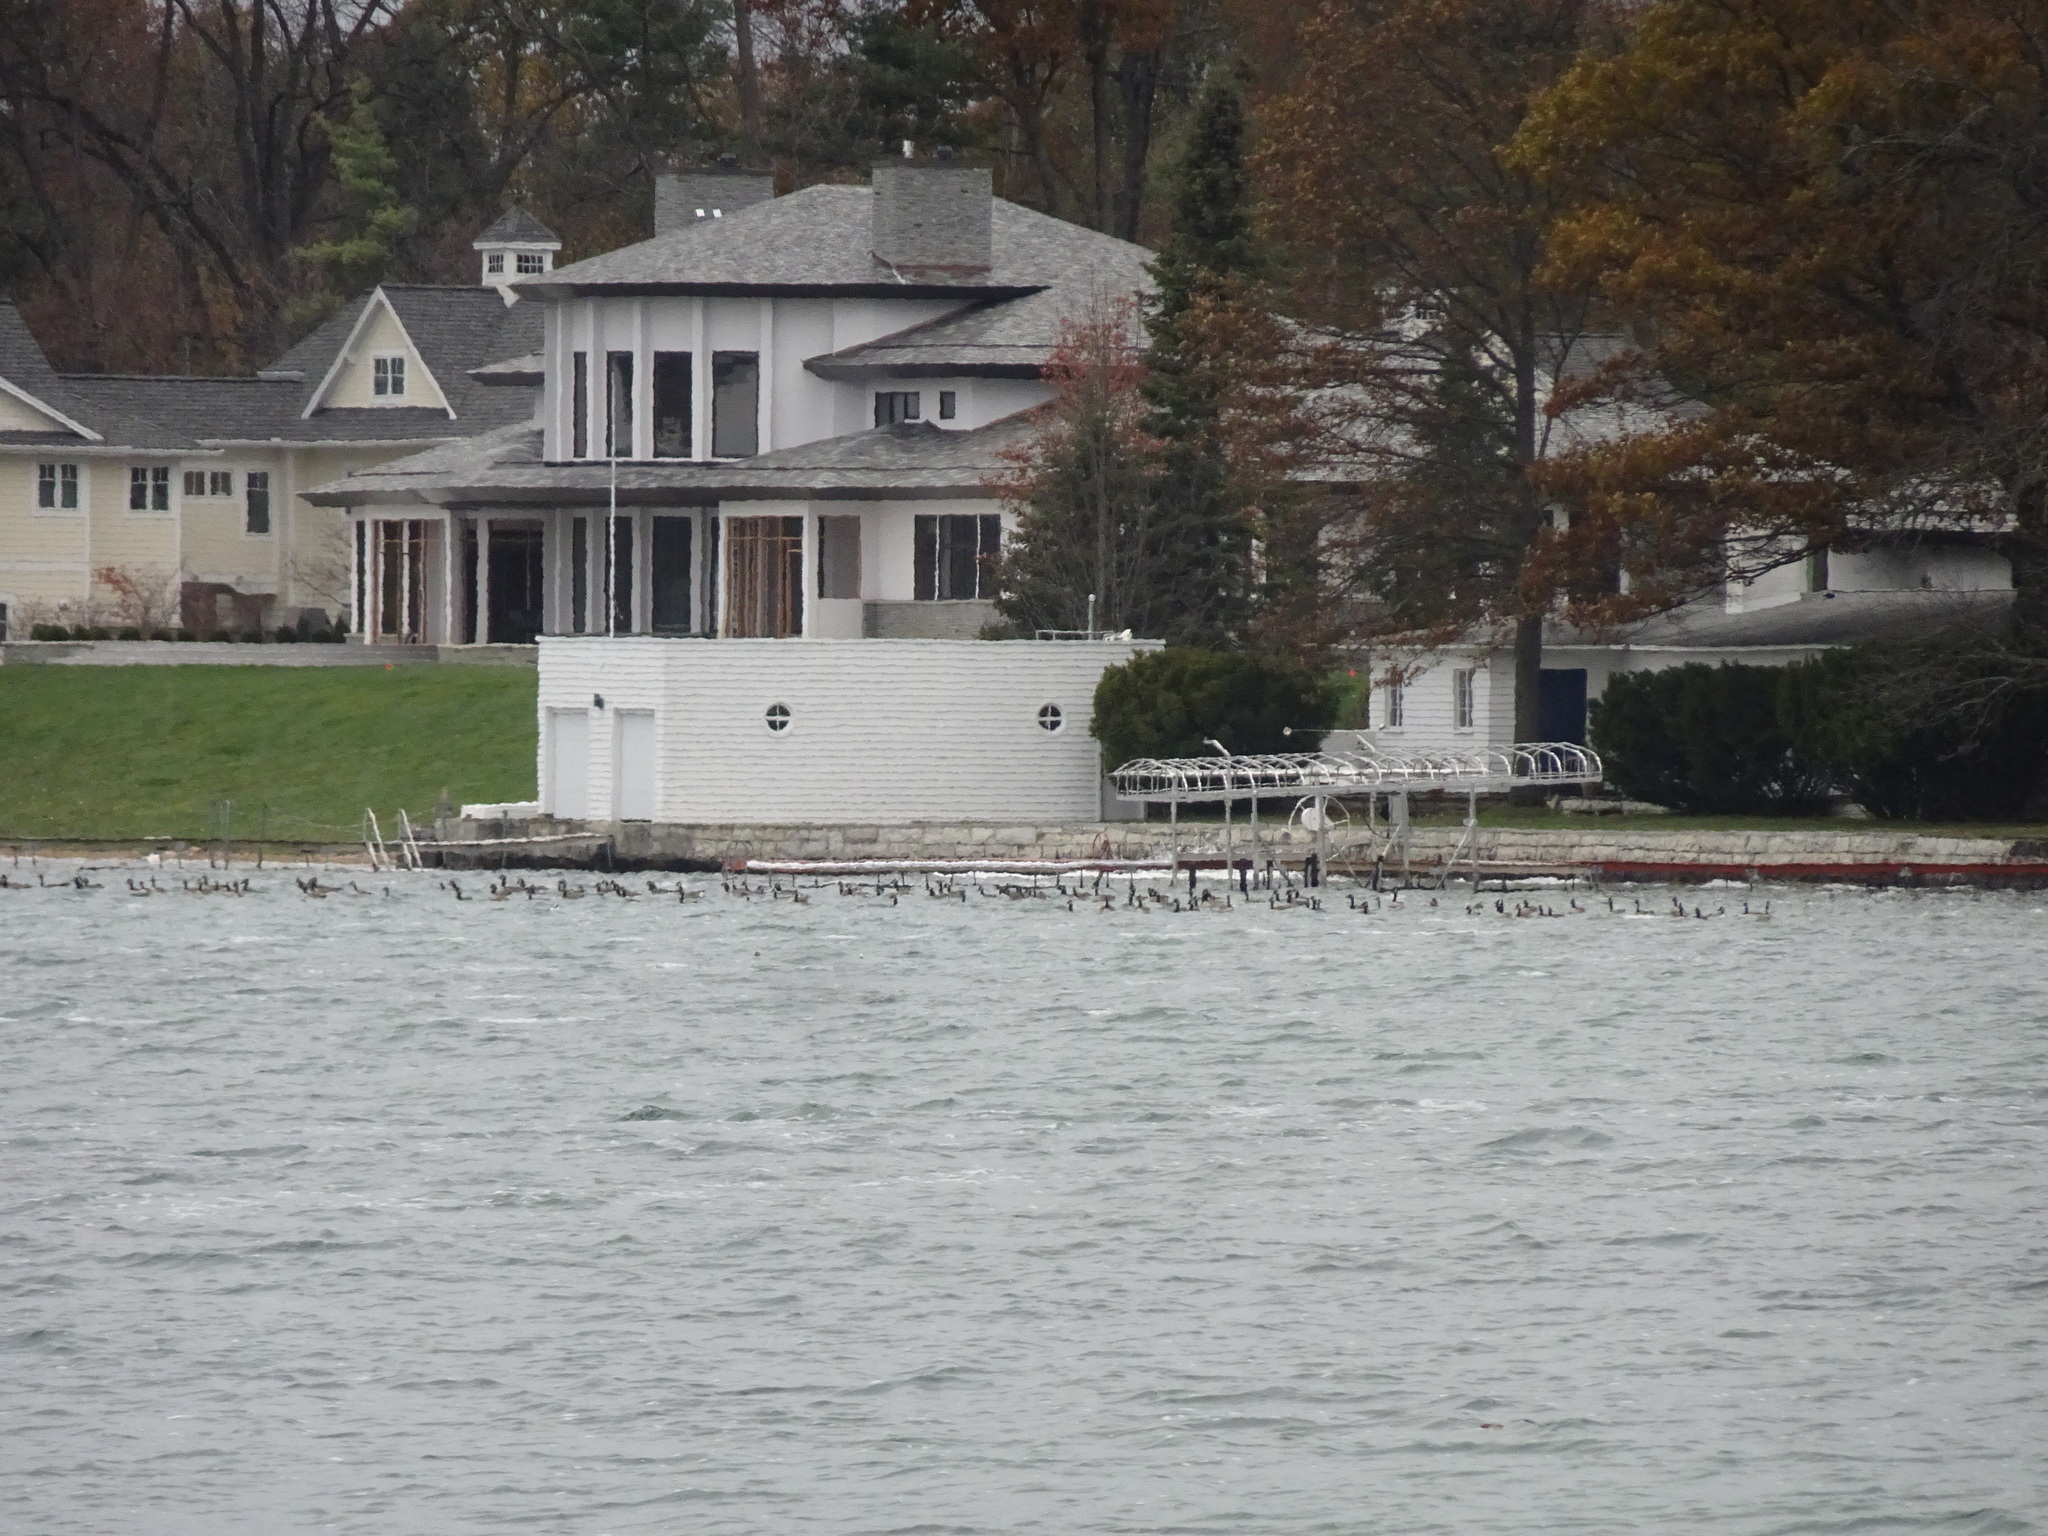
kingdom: Animalia
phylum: Chordata
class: Aves
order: Anseriformes
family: Anatidae
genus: Branta
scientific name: Branta canadensis
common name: Canada goose
